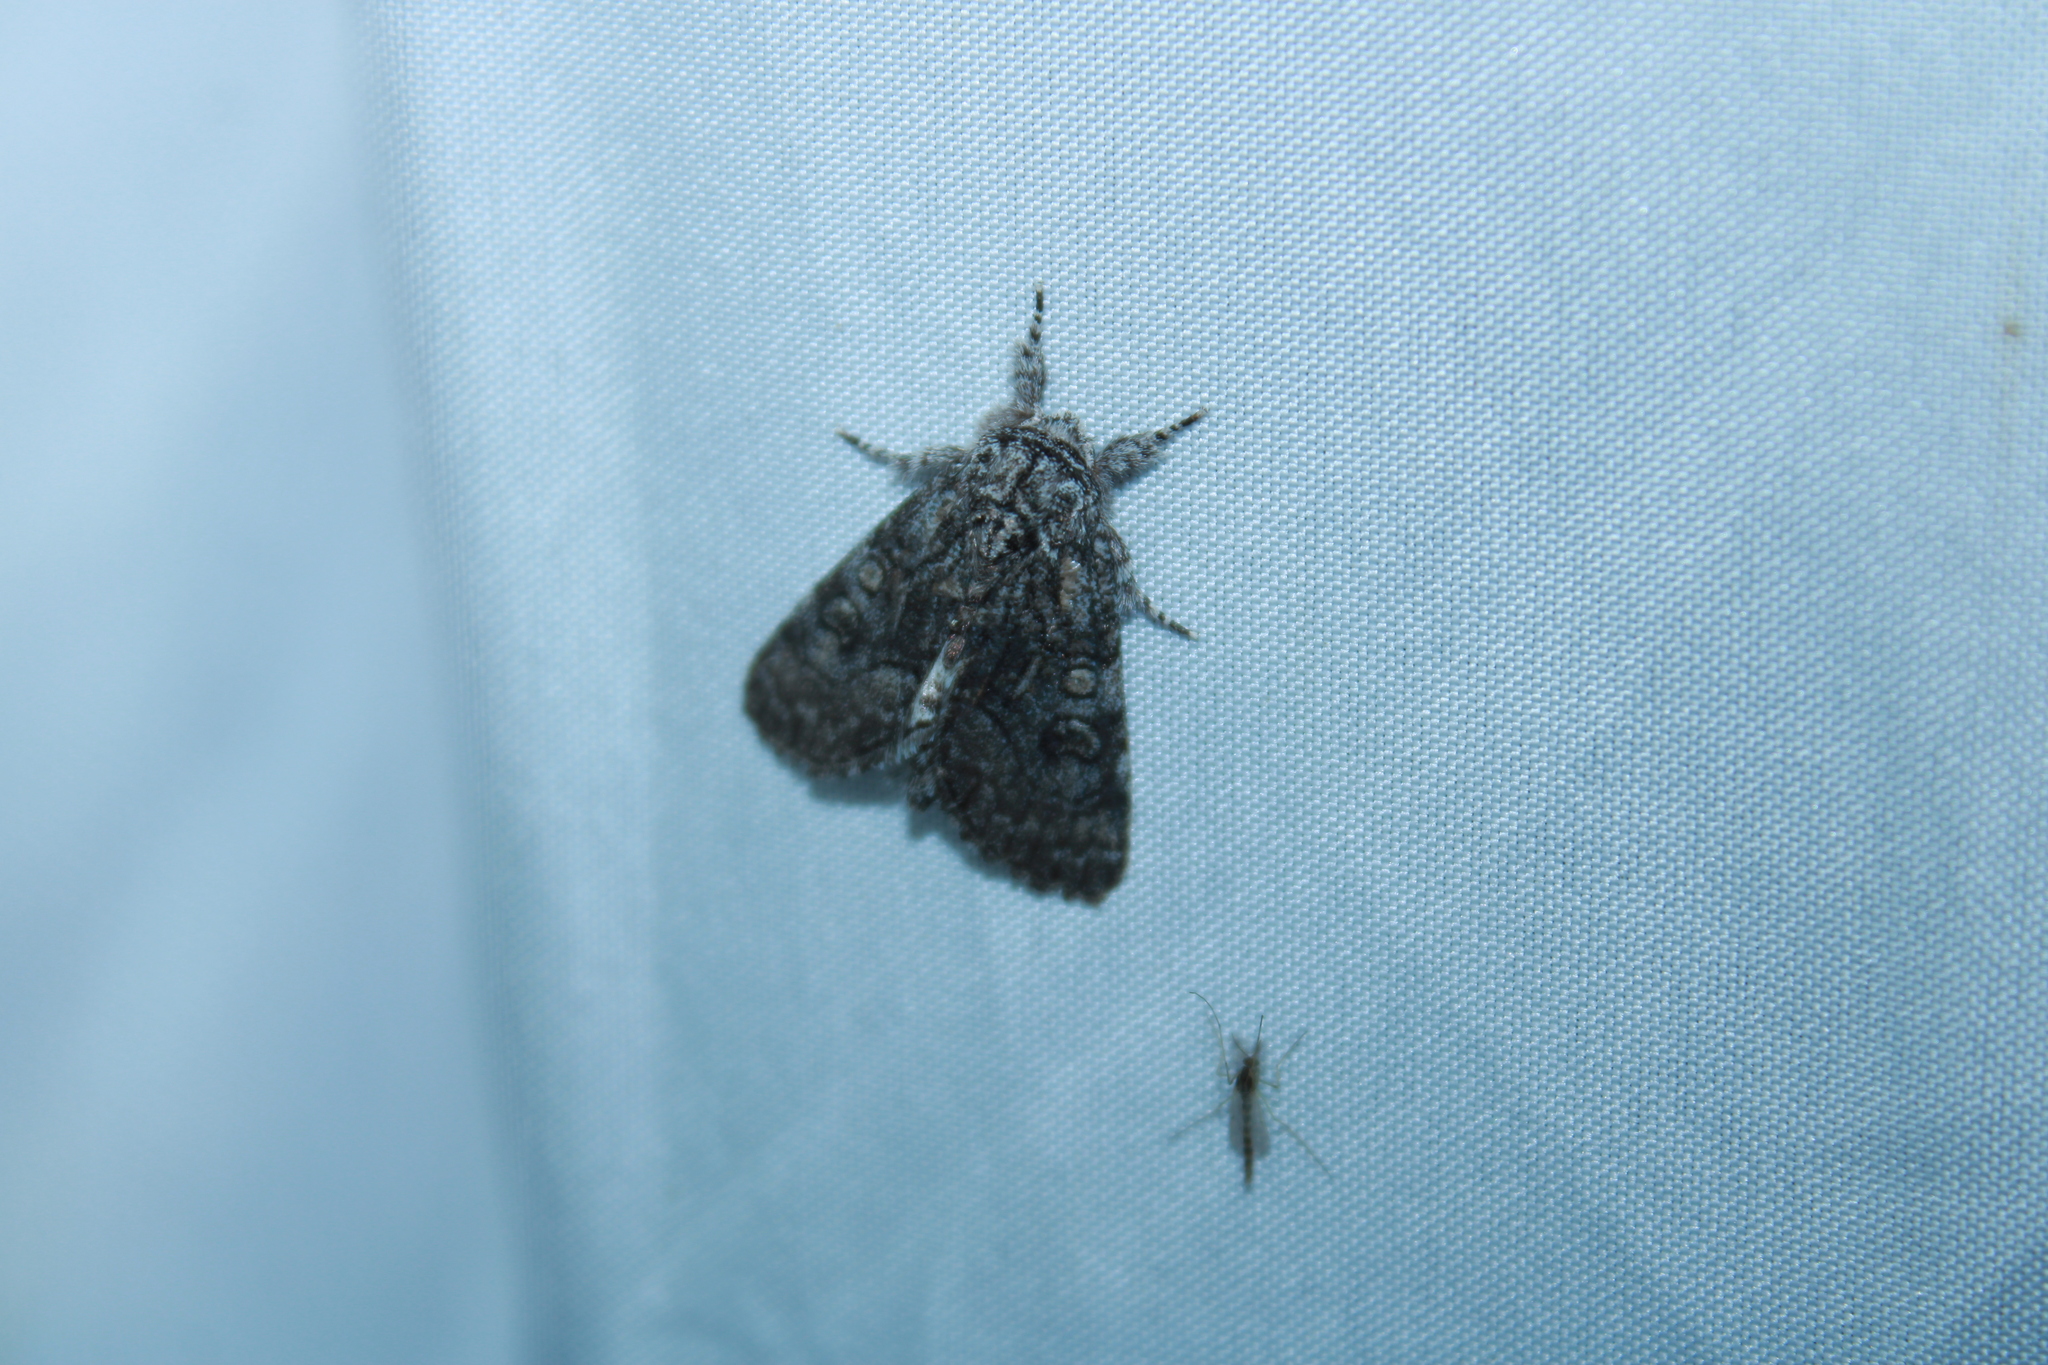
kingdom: Animalia
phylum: Arthropoda
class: Insecta
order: Lepidoptera
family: Noctuidae
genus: Raphia
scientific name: Raphia frater
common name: Brother
